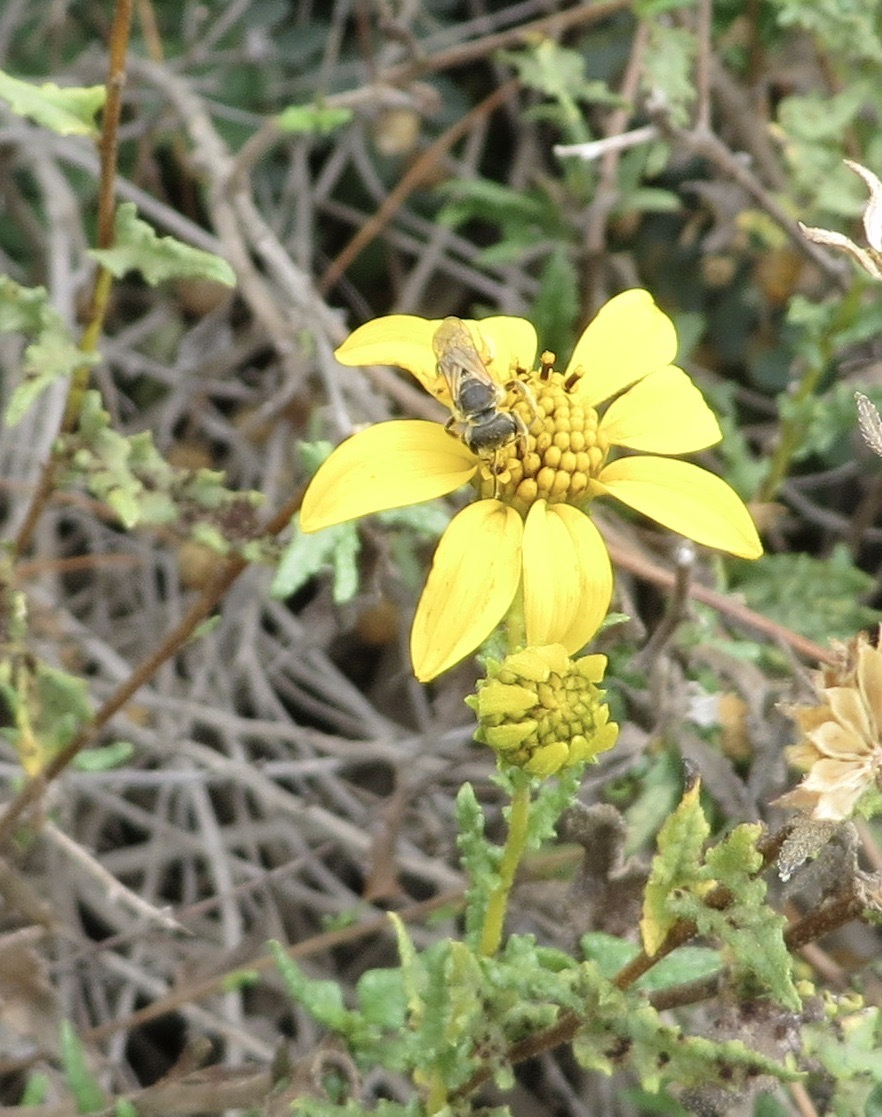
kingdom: Animalia
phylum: Arthropoda
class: Insecta
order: Hymenoptera
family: Halictidae
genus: Halictus
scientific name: Halictus ligatus
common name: Ligated furrow bee
